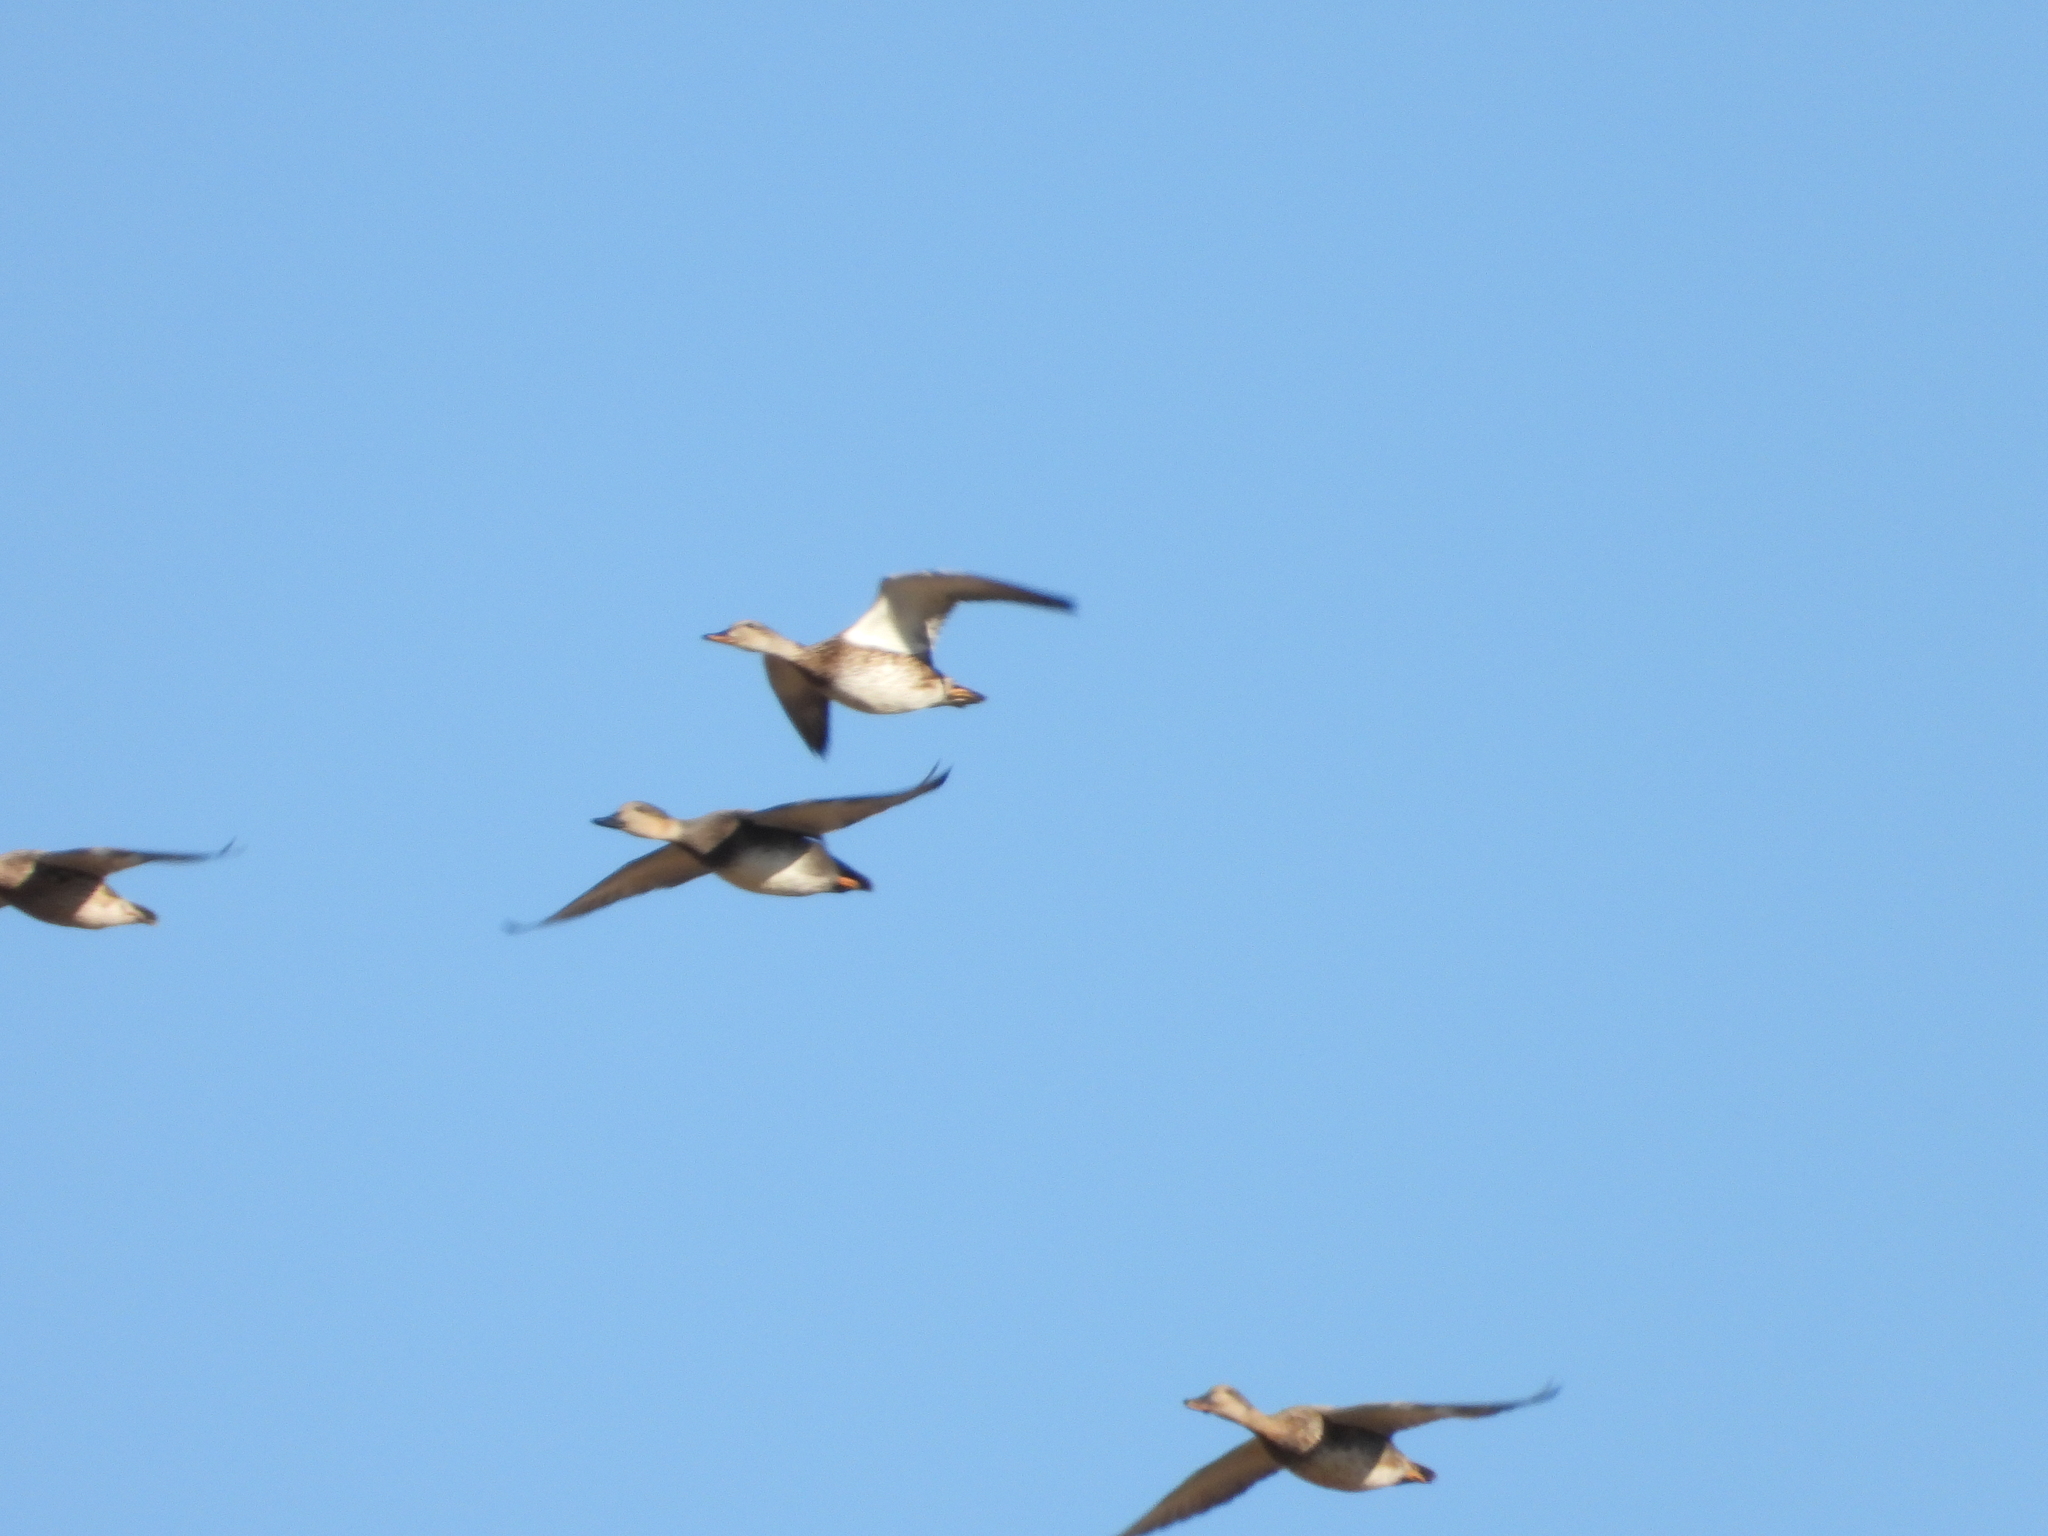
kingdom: Animalia
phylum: Chordata
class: Aves
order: Anseriformes
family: Anatidae
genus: Mareca
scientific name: Mareca strepera
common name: Gadwall
